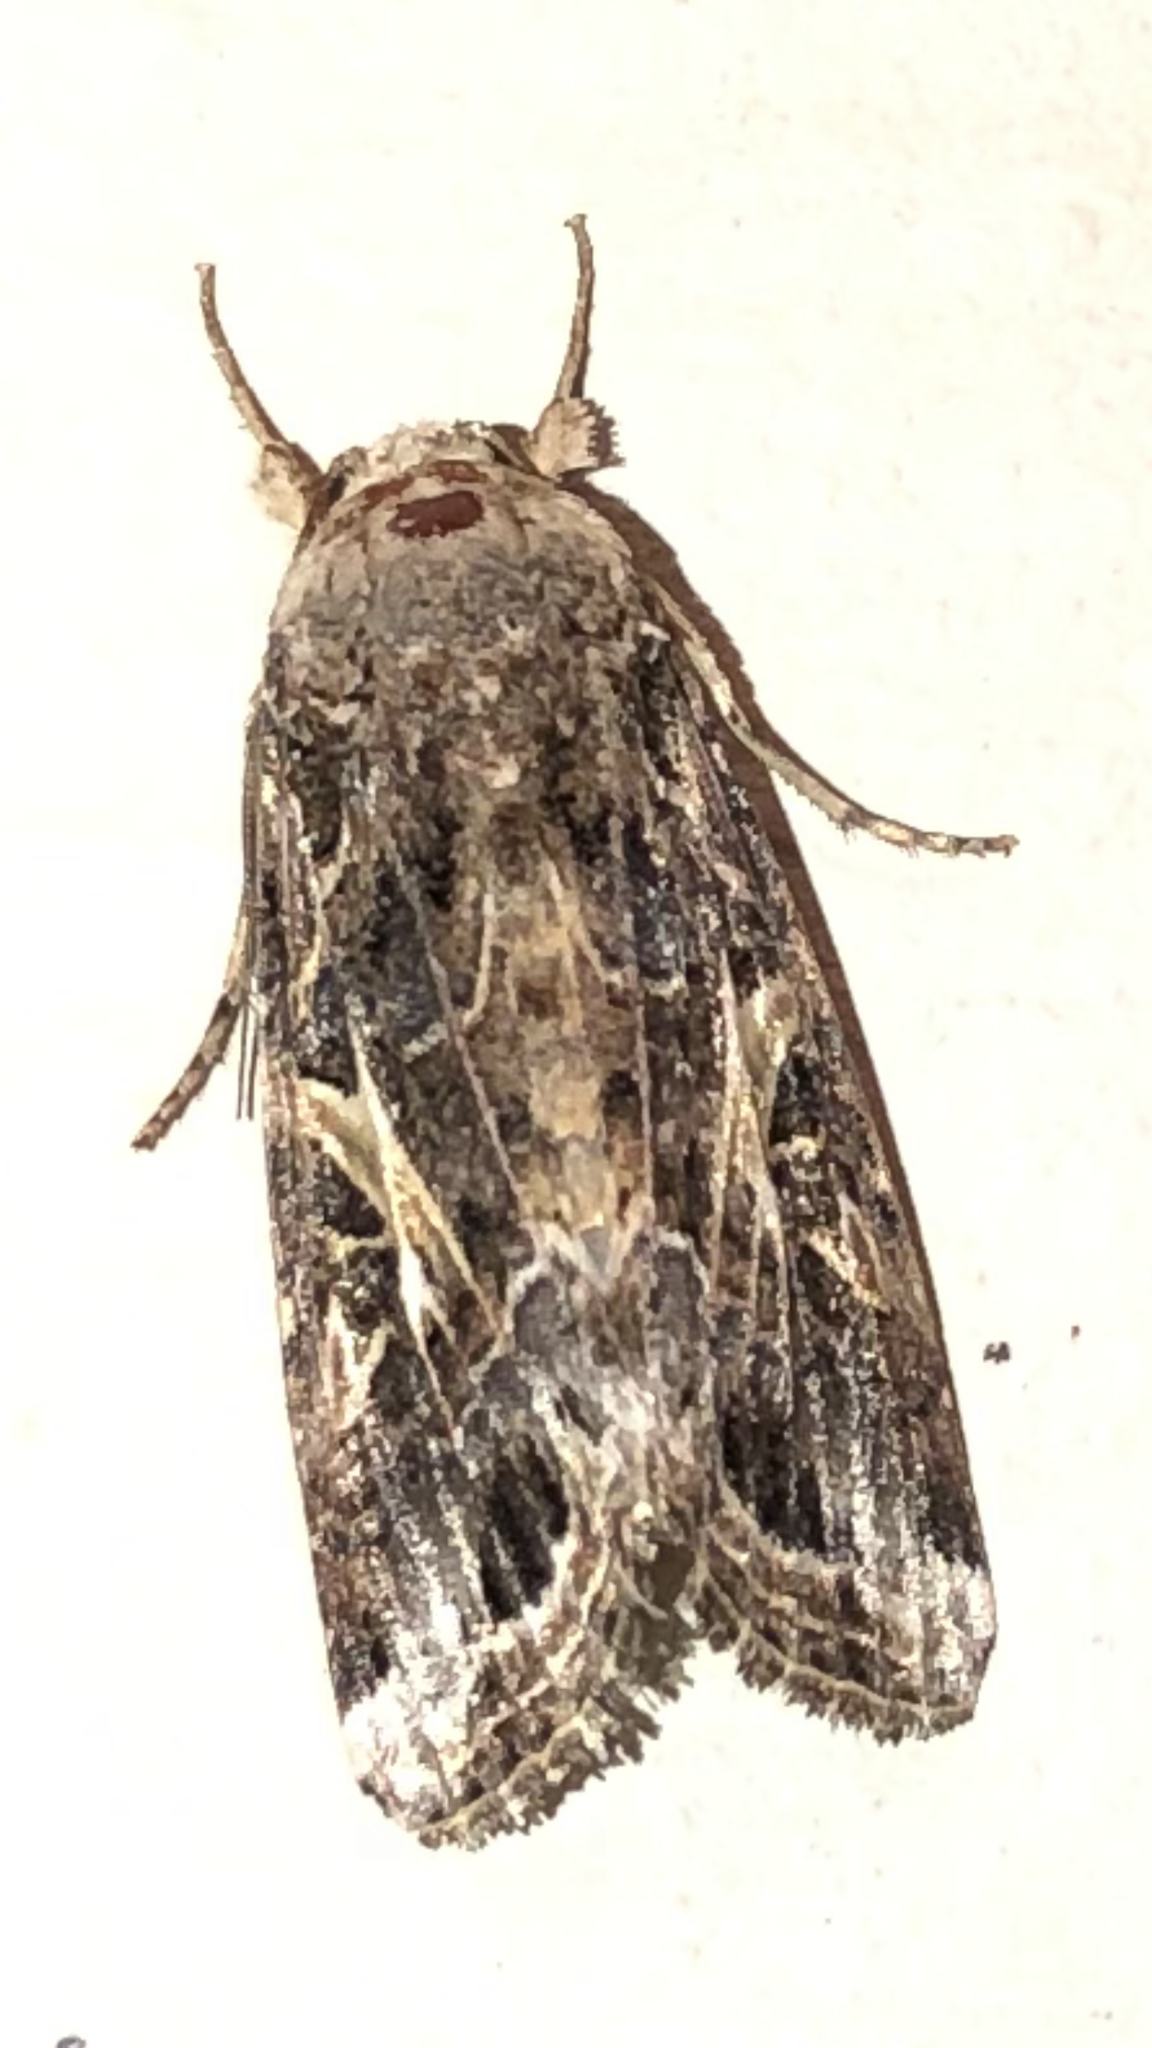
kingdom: Animalia
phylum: Arthropoda
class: Insecta
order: Lepidoptera
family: Noctuidae
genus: Spodoptera
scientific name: Spodoptera ornithogalli
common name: Yellow-striped armyworm
